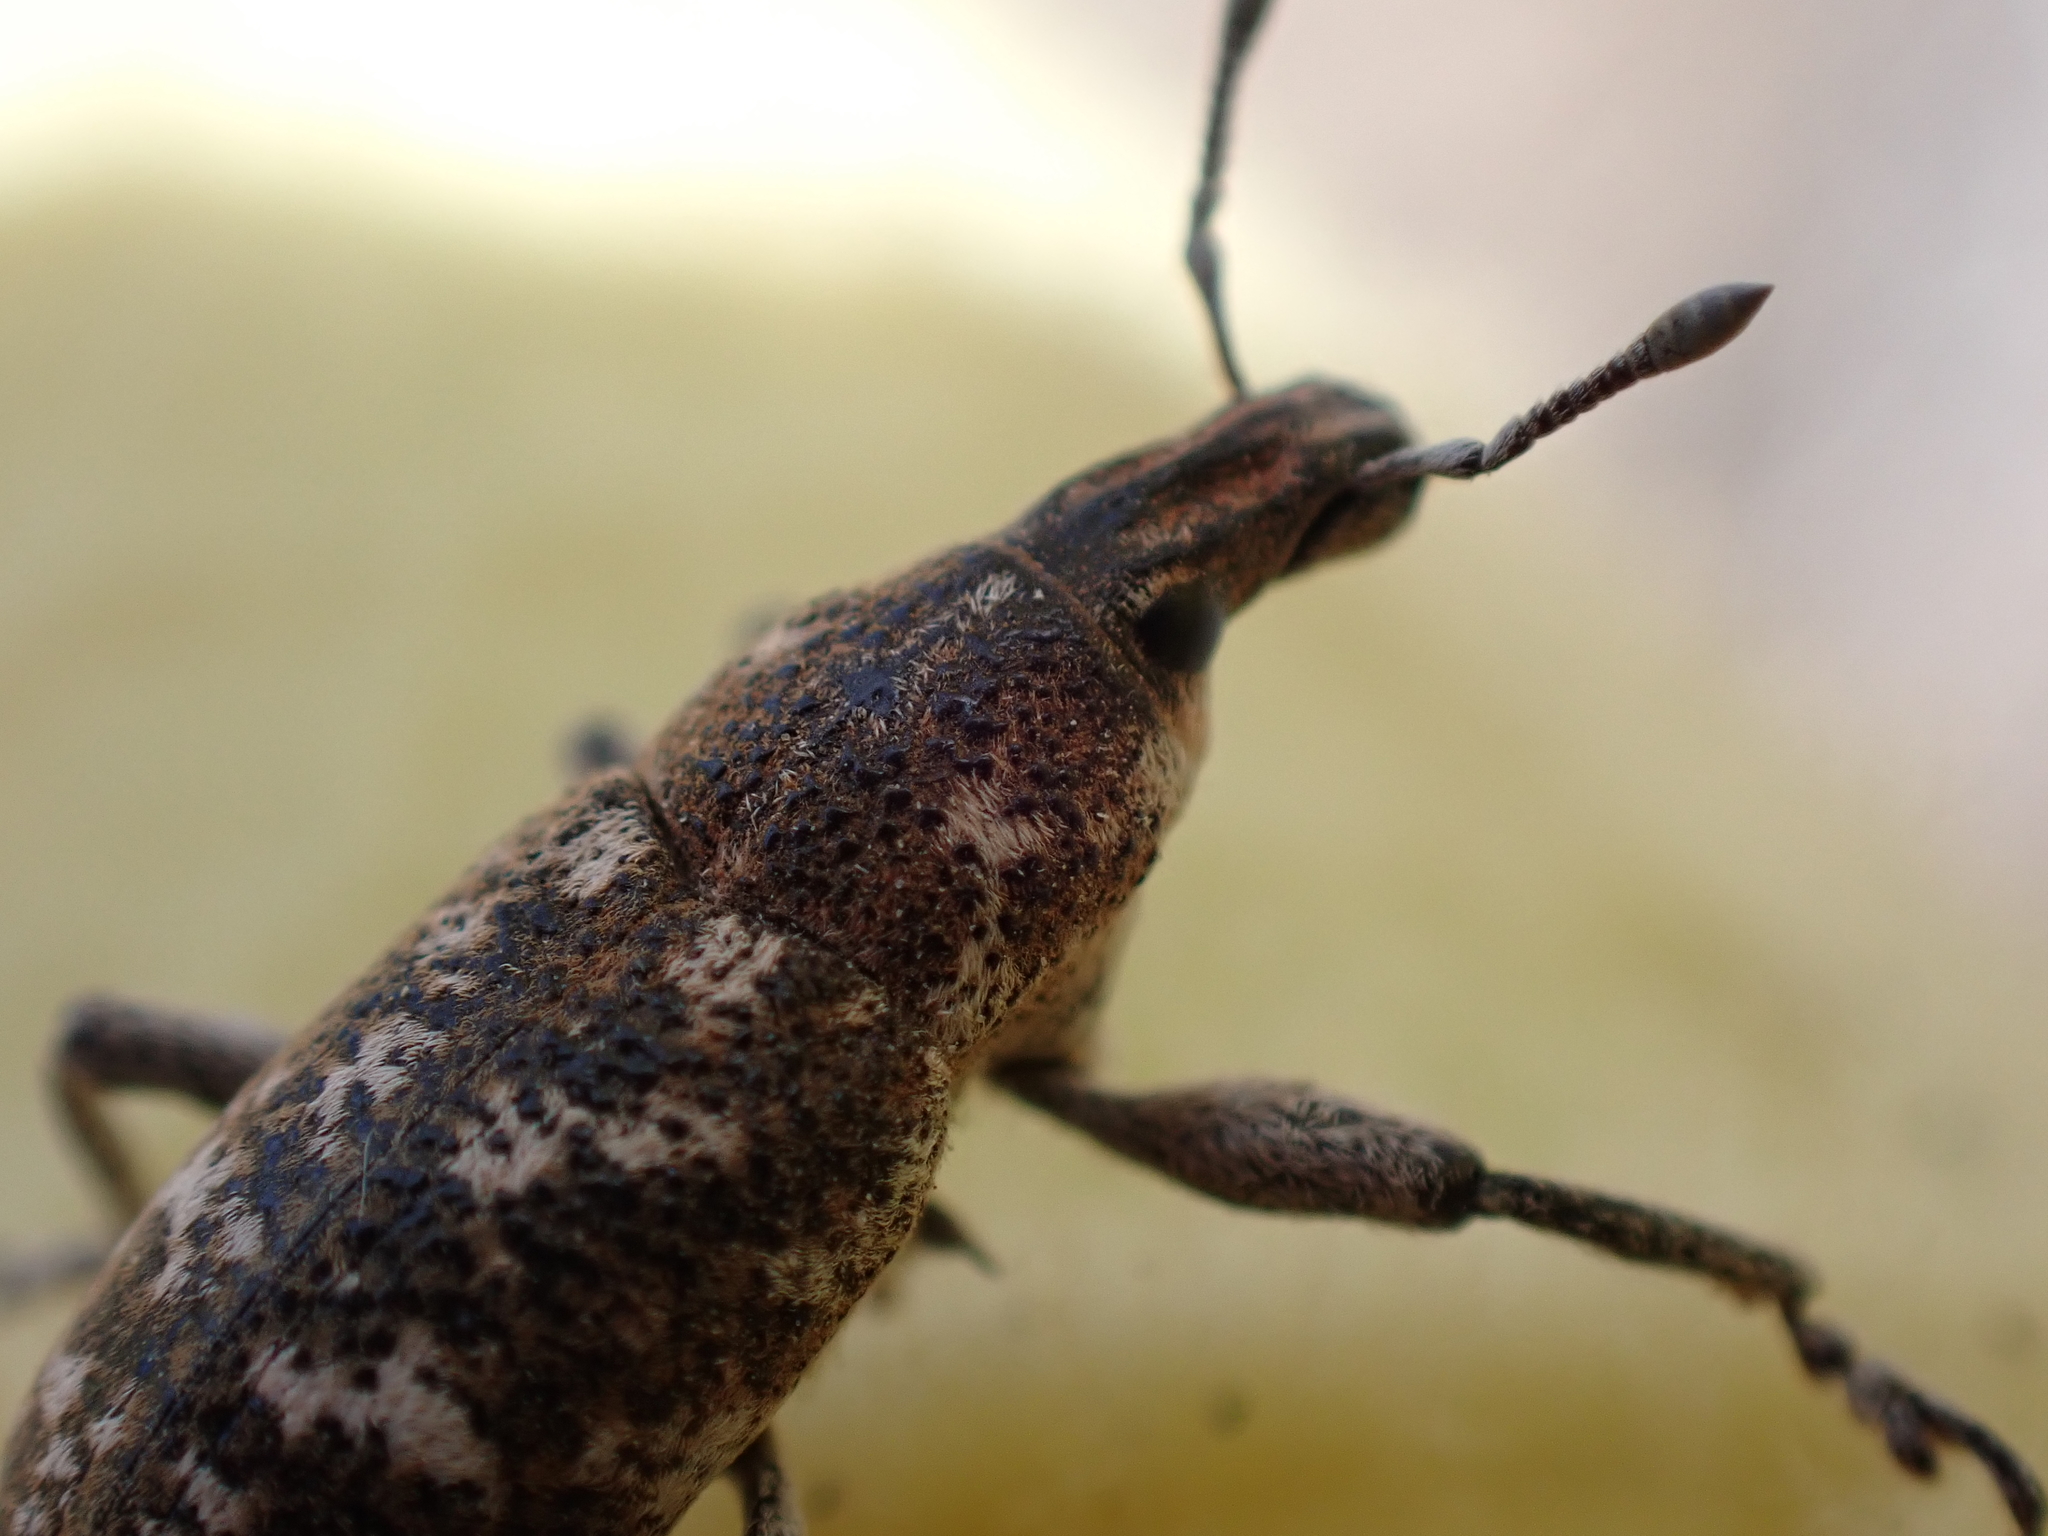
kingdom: Animalia
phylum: Arthropoda
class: Insecta
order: Coleoptera
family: Curculionidae
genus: Cleonus
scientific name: Cleonus achates
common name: Root weevil
